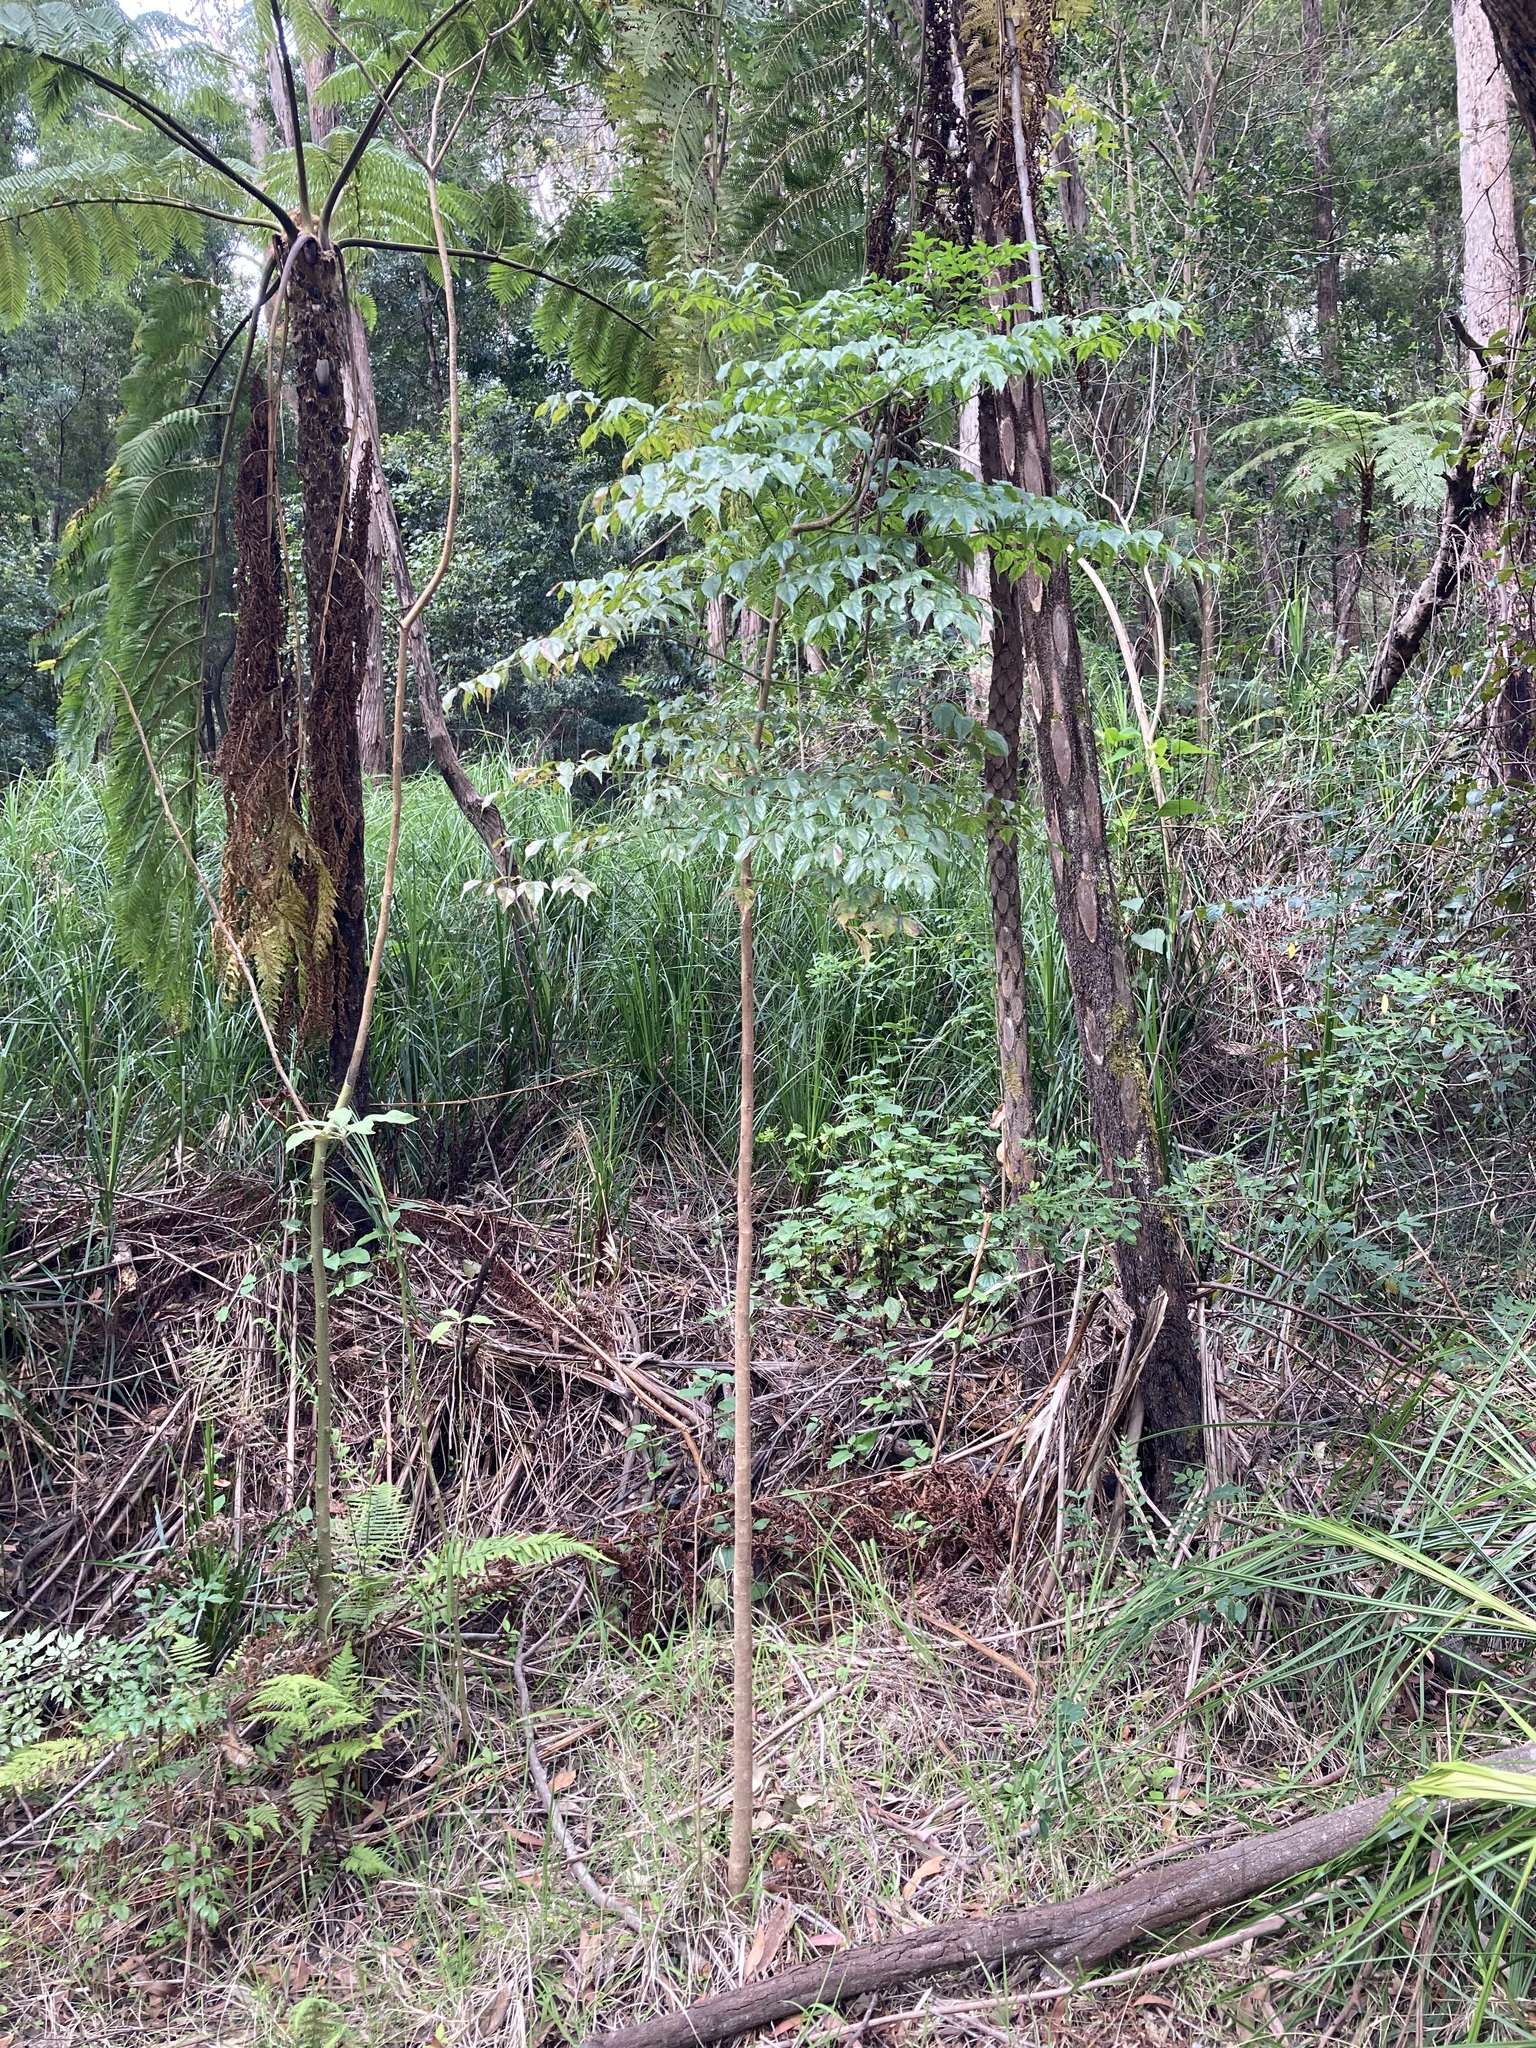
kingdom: Plantae
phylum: Tracheophyta
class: Magnoliopsida
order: Lamiales
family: Bignoniaceae
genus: Radermachera
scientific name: Radermachera sinica
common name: China doll plant
